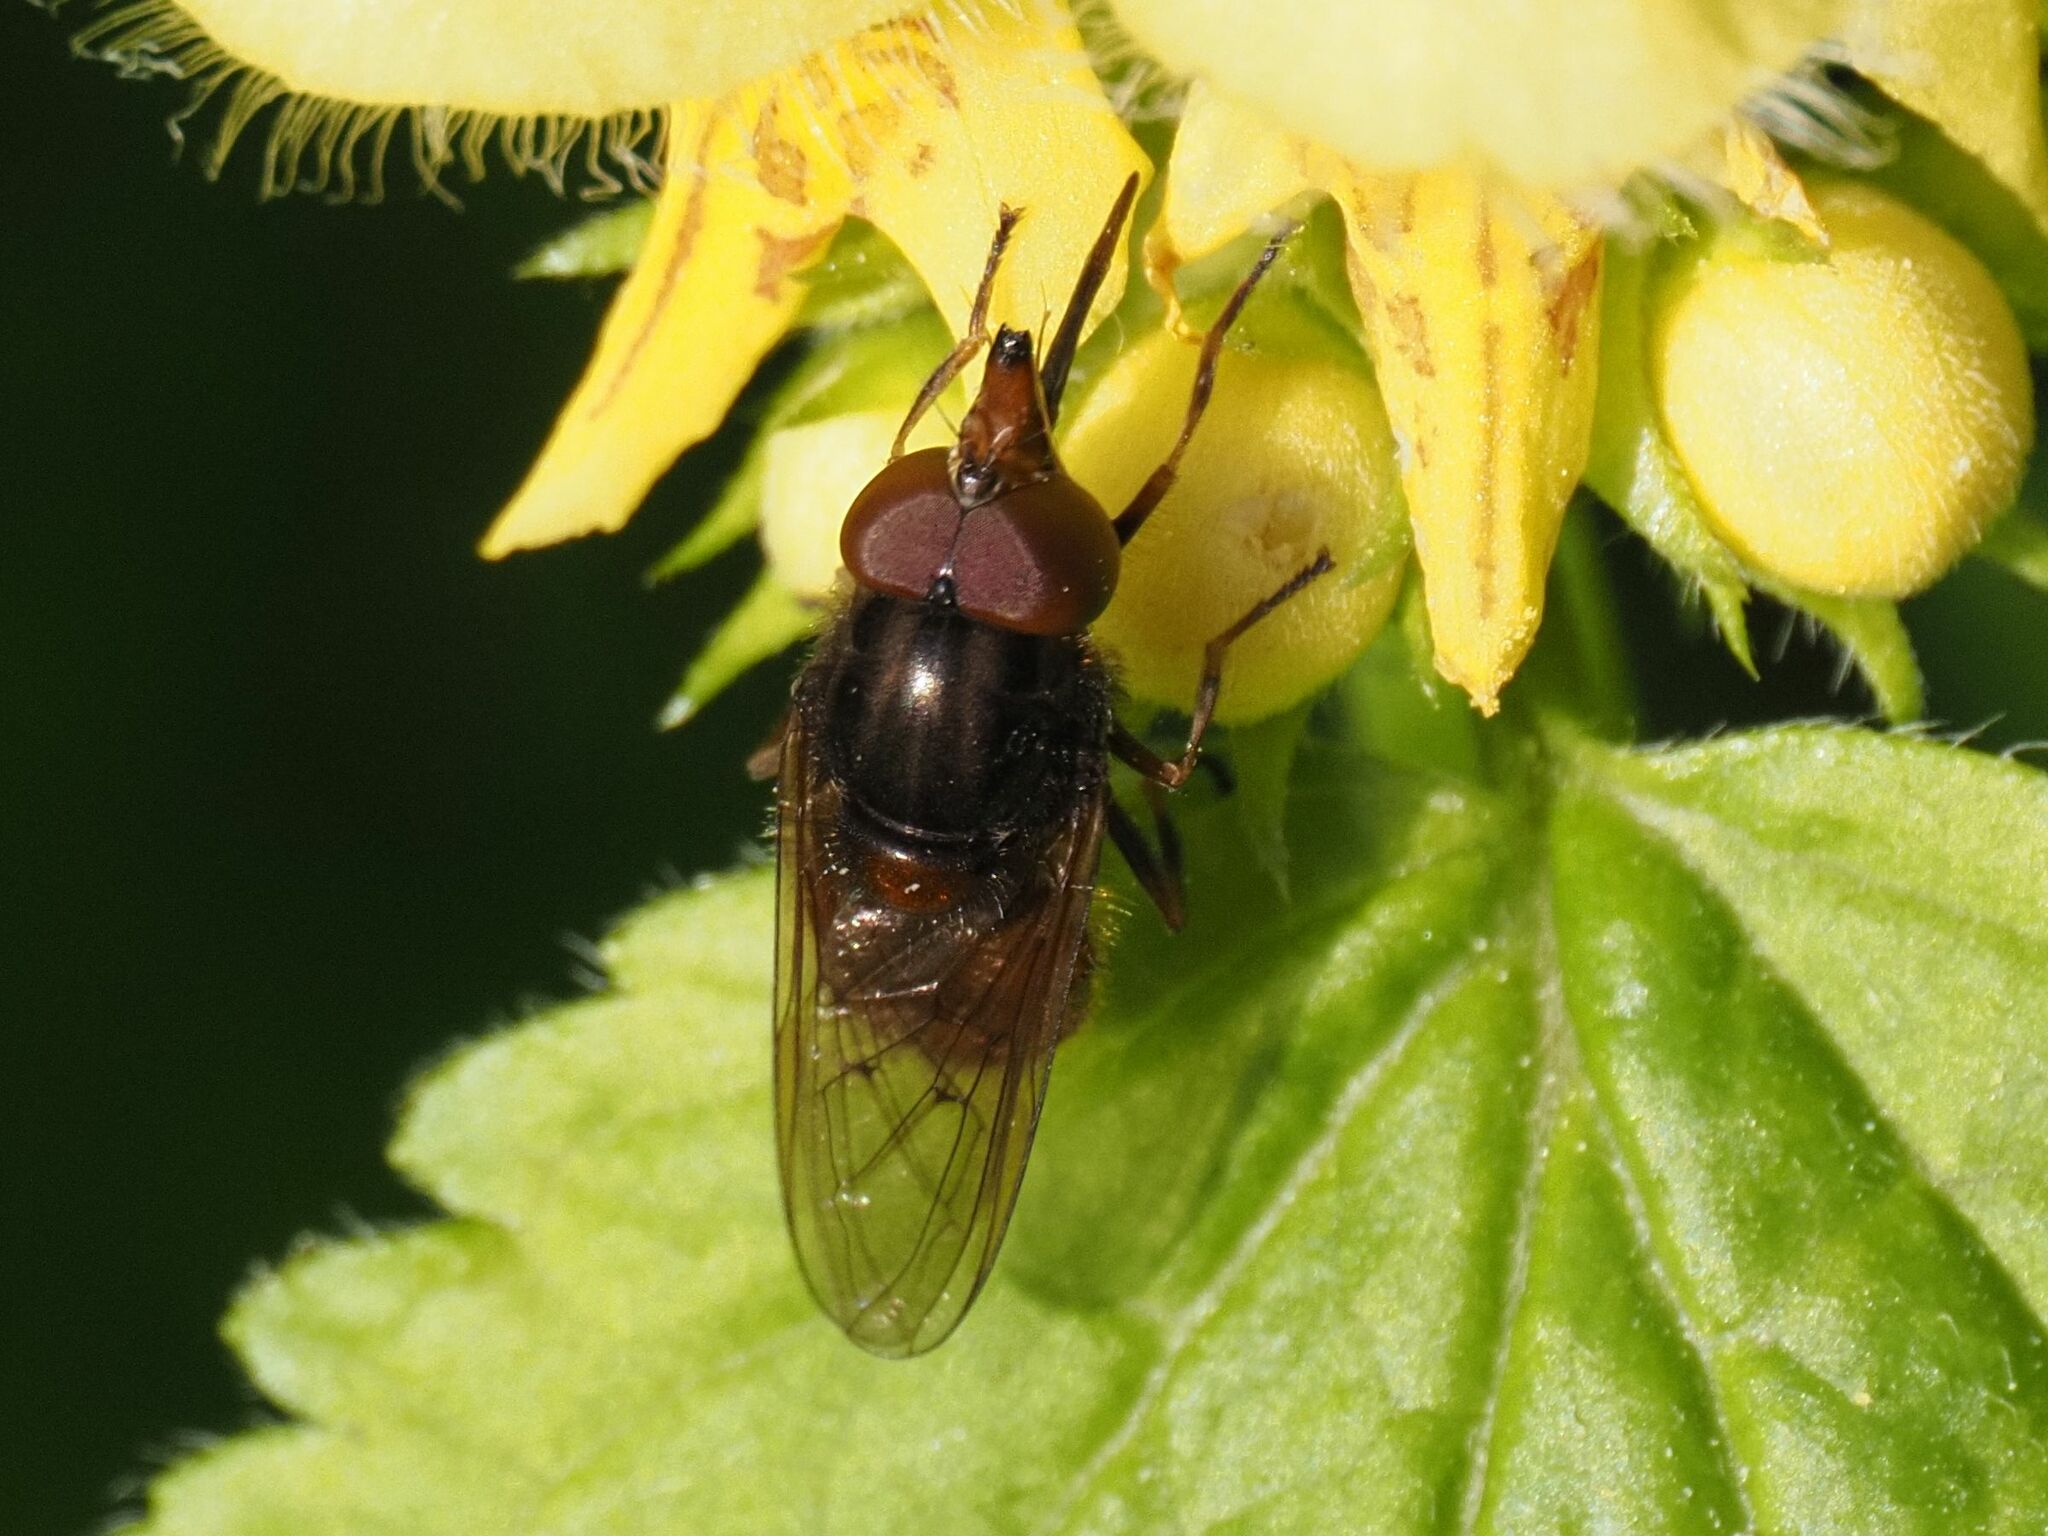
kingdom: Animalia
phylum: Arthropoda
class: Insecta
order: Diptera
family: Syrphidae
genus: Rhingia
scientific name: Rhingia campestris
